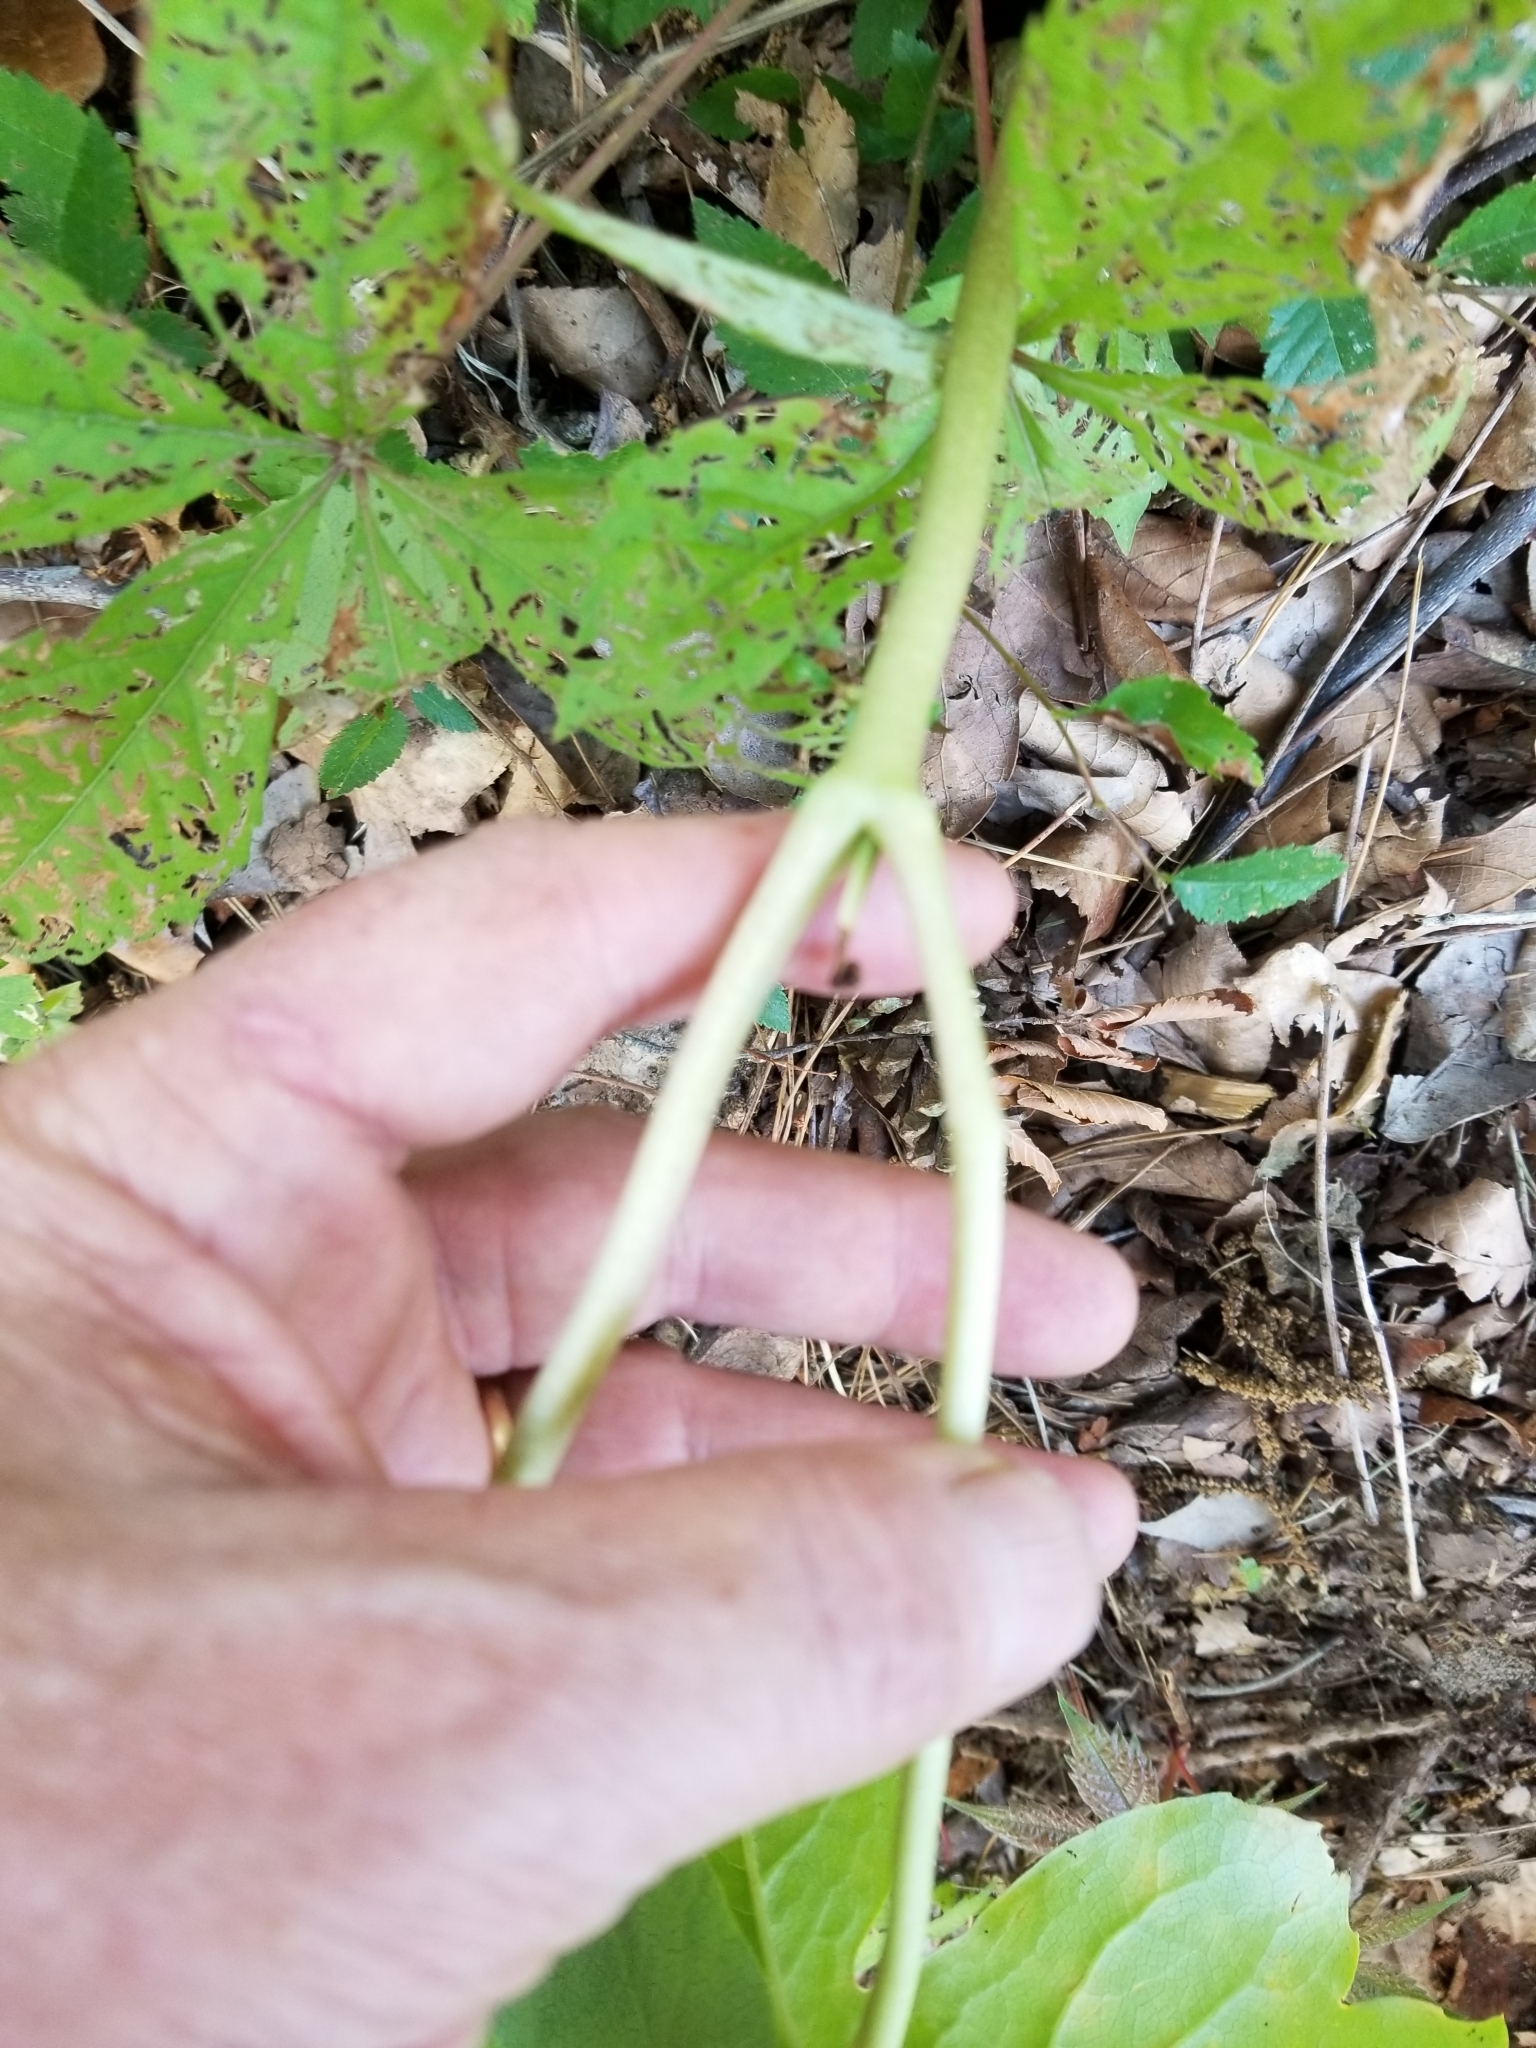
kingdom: Plantae
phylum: Tracheophyta
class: Magnoliopsida
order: Ranunculales
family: Berberidaceae
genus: Podophyllum
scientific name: Podophyllum peltatum
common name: Wild mandrake
